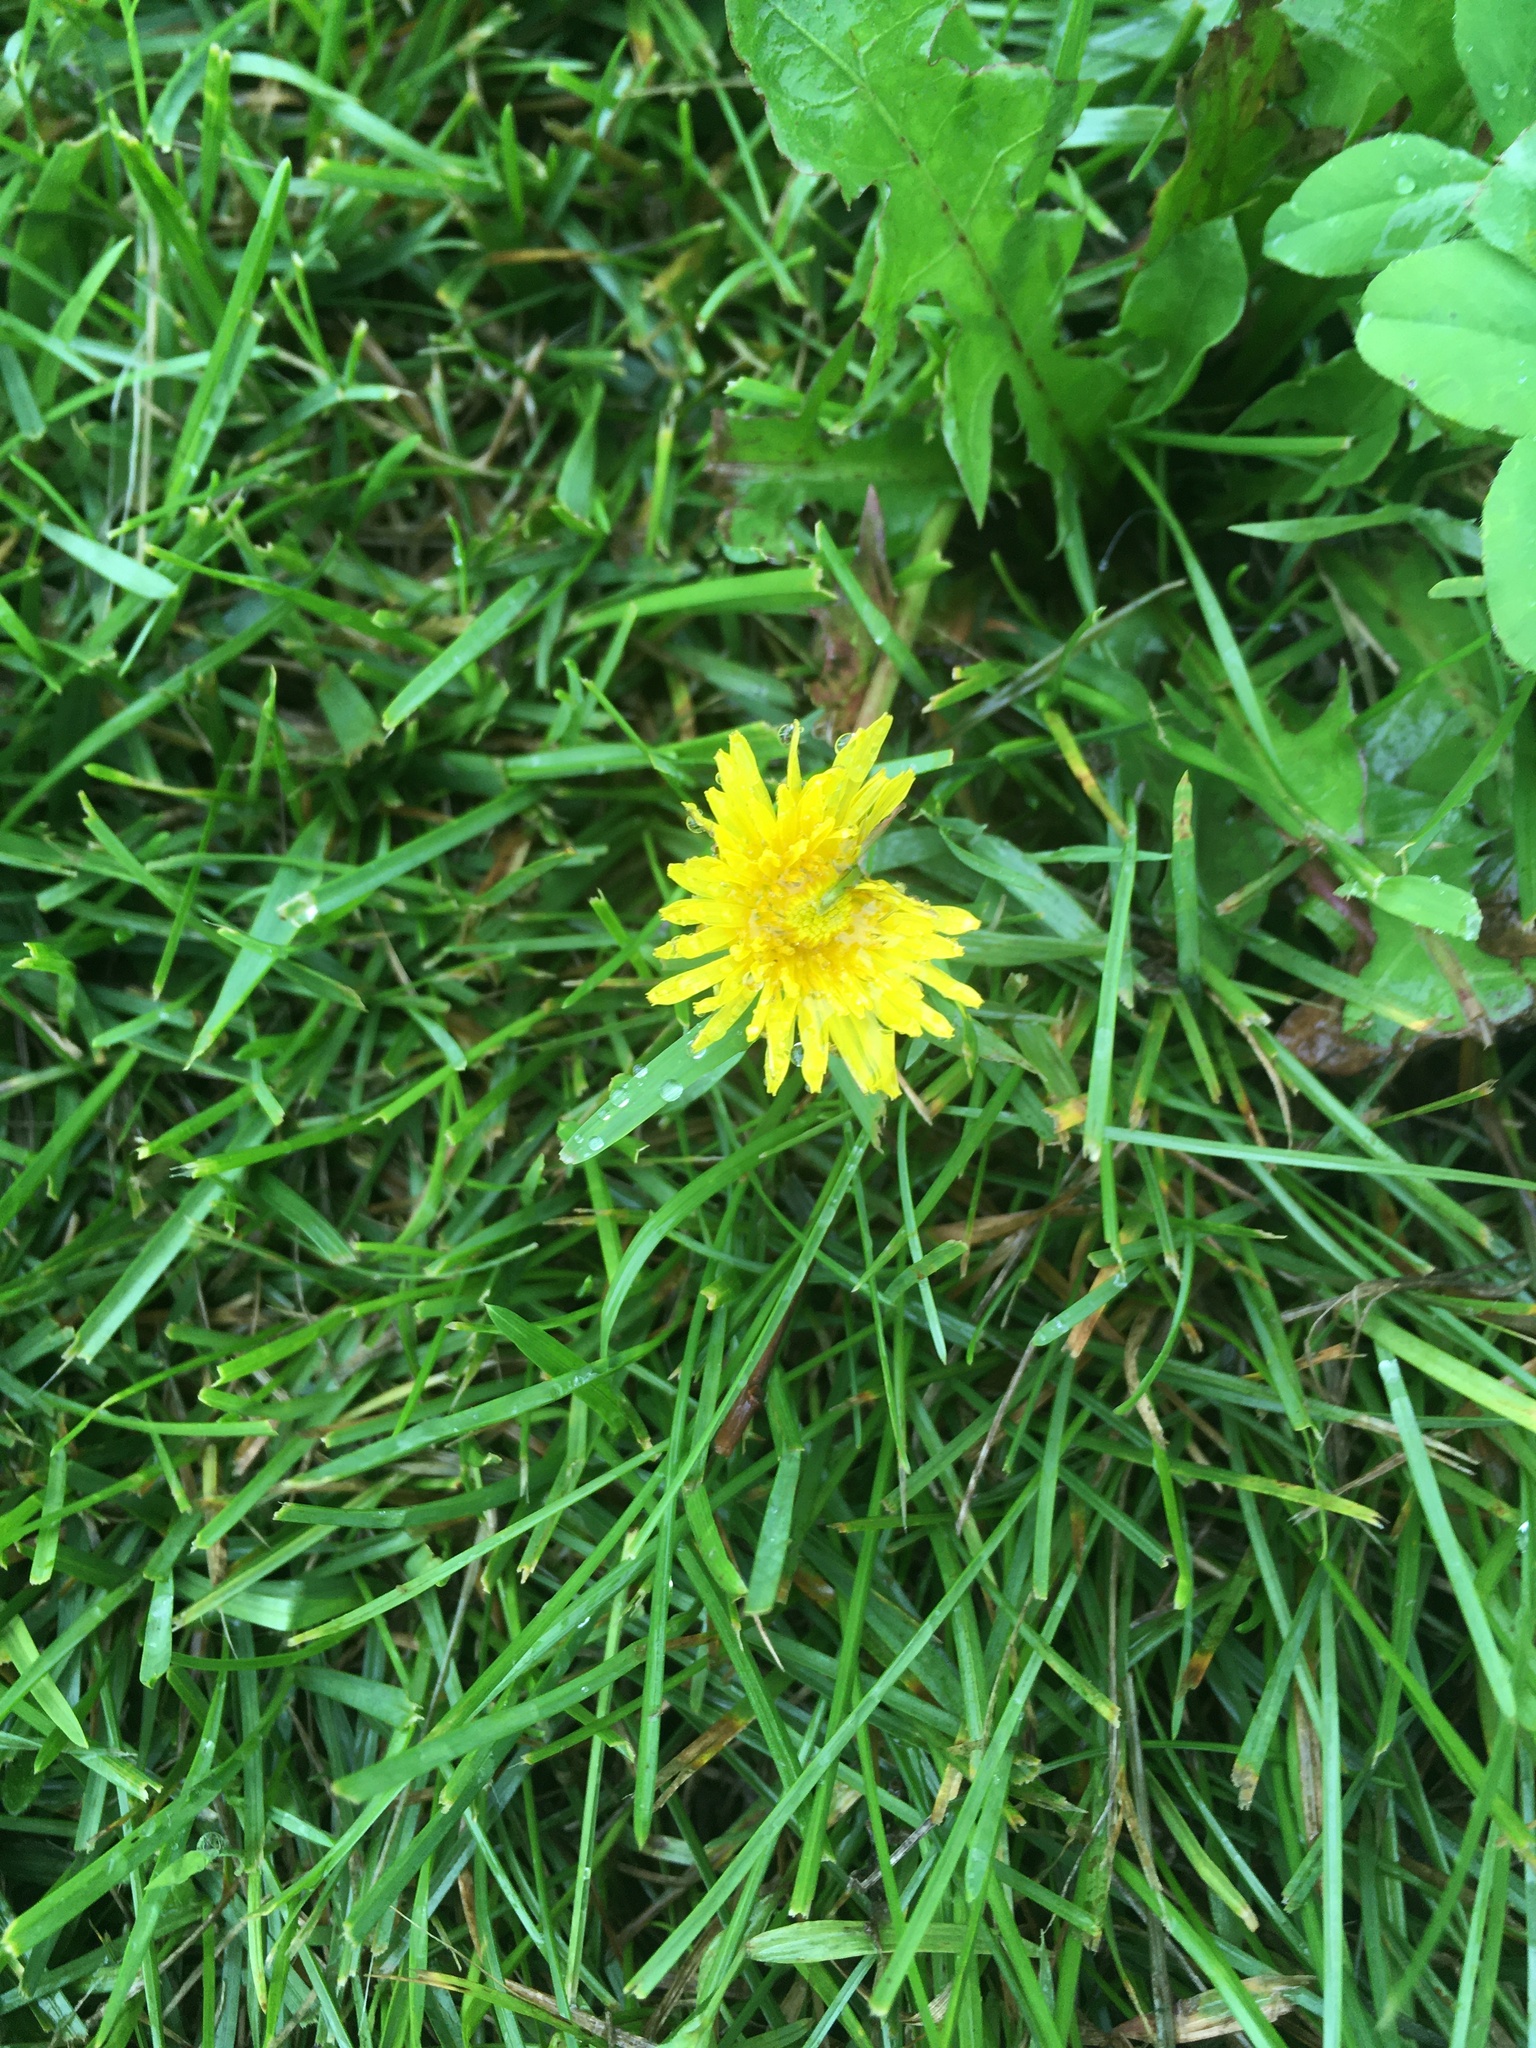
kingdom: Plantae
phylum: Tracheophyta
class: Magnoliopsida
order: Asterales
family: Asteraceae
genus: Taraxacum
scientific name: Taraxacum
